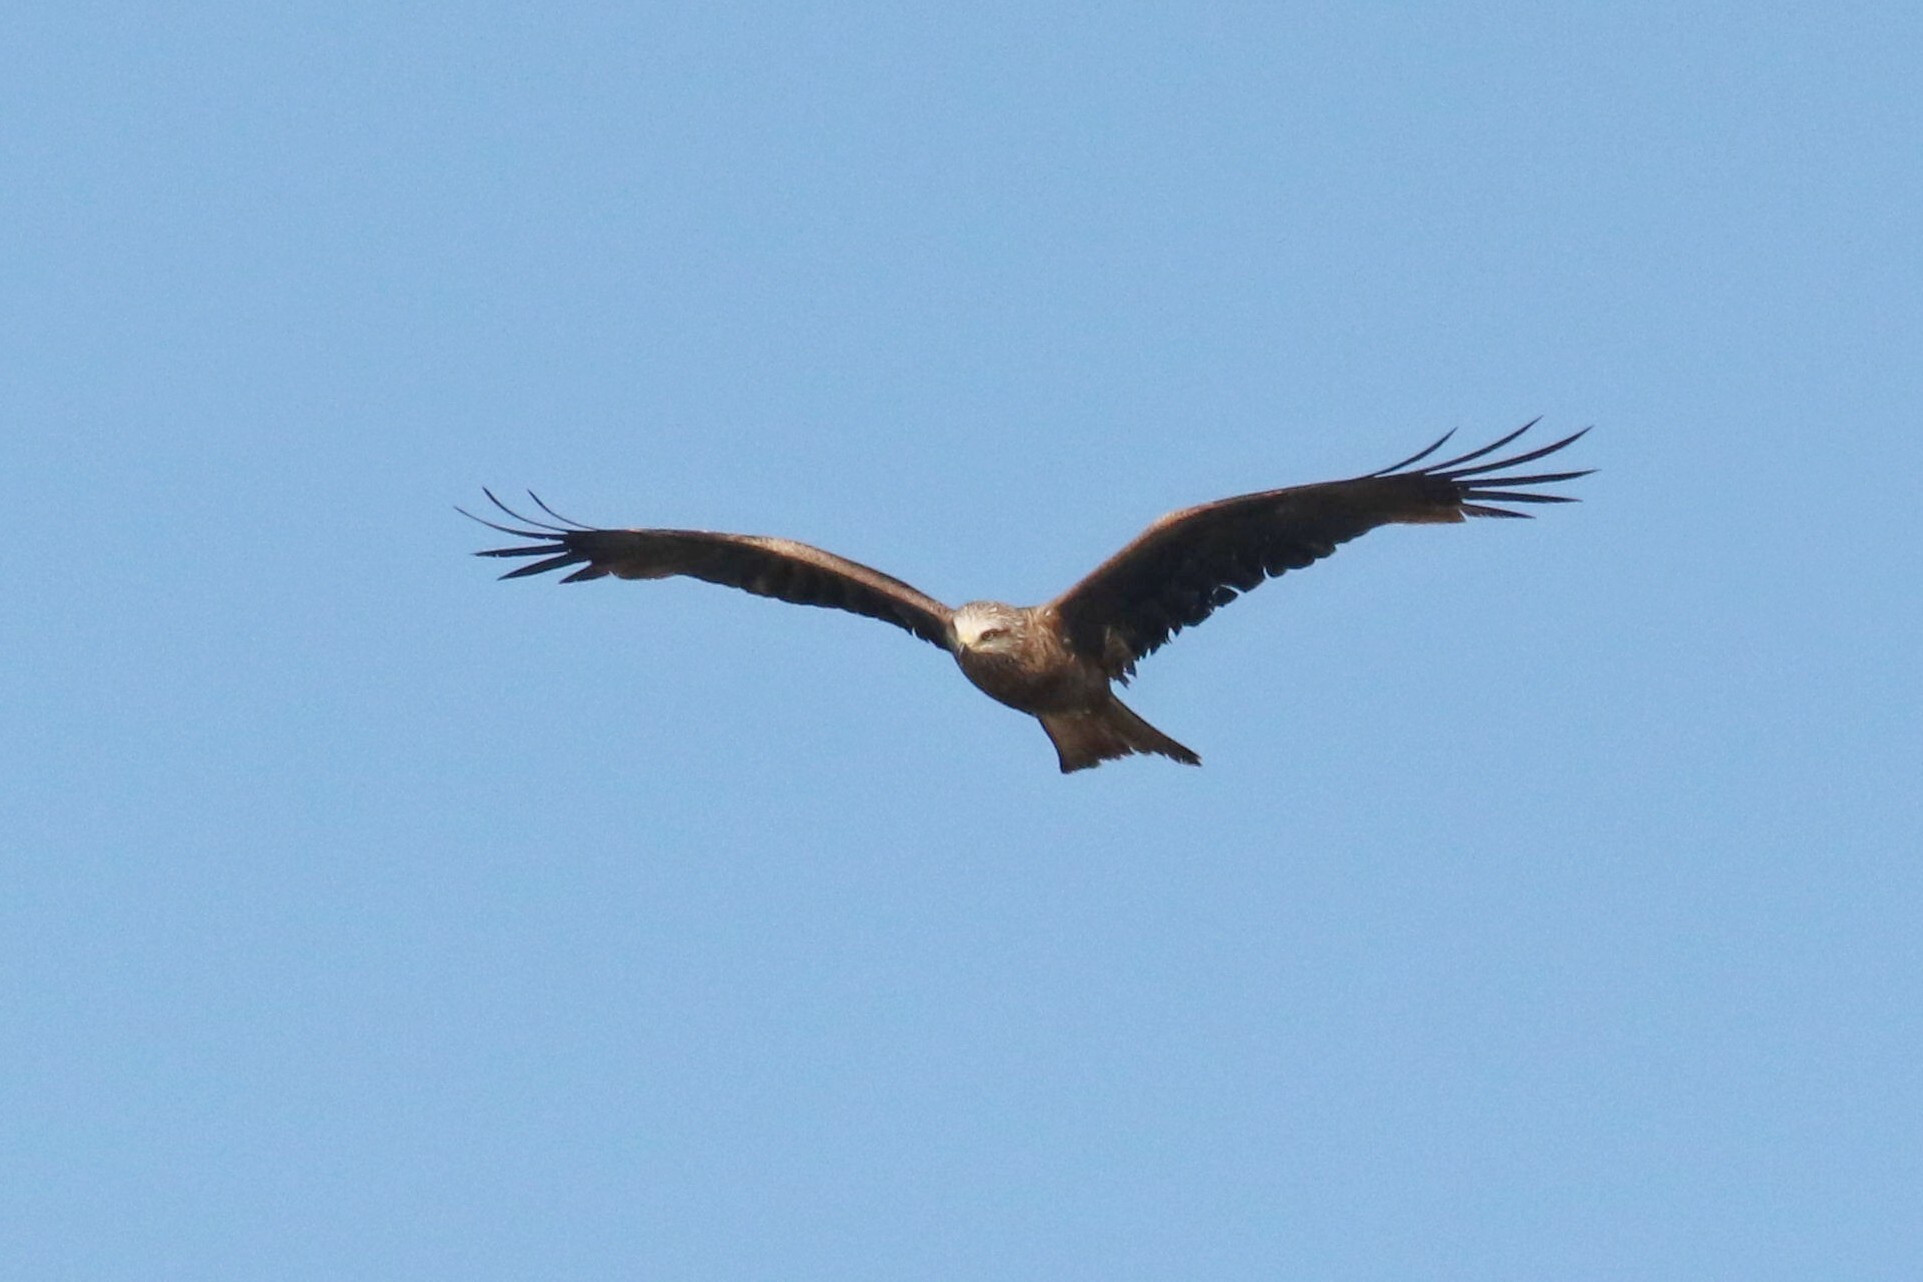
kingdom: Animalia
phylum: Chordata
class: Aves
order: Accipitriformes
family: Accipitridae
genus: Milvus
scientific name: Milvus migrans
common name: Black kite
